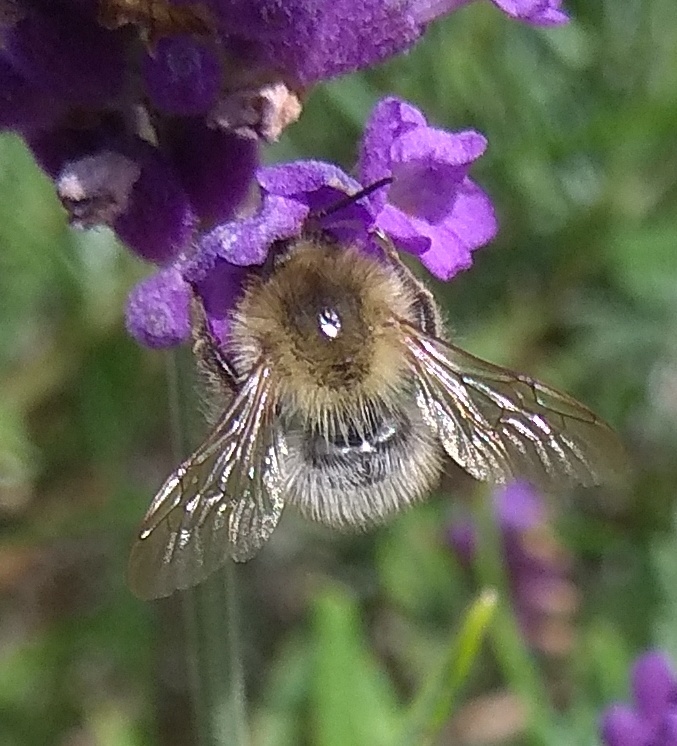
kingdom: Animalia
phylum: Arthropoda
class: Insecta
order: Hymenoptera
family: Apidae
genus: Bombus
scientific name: Bombus pascuorum
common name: Common carder bee
